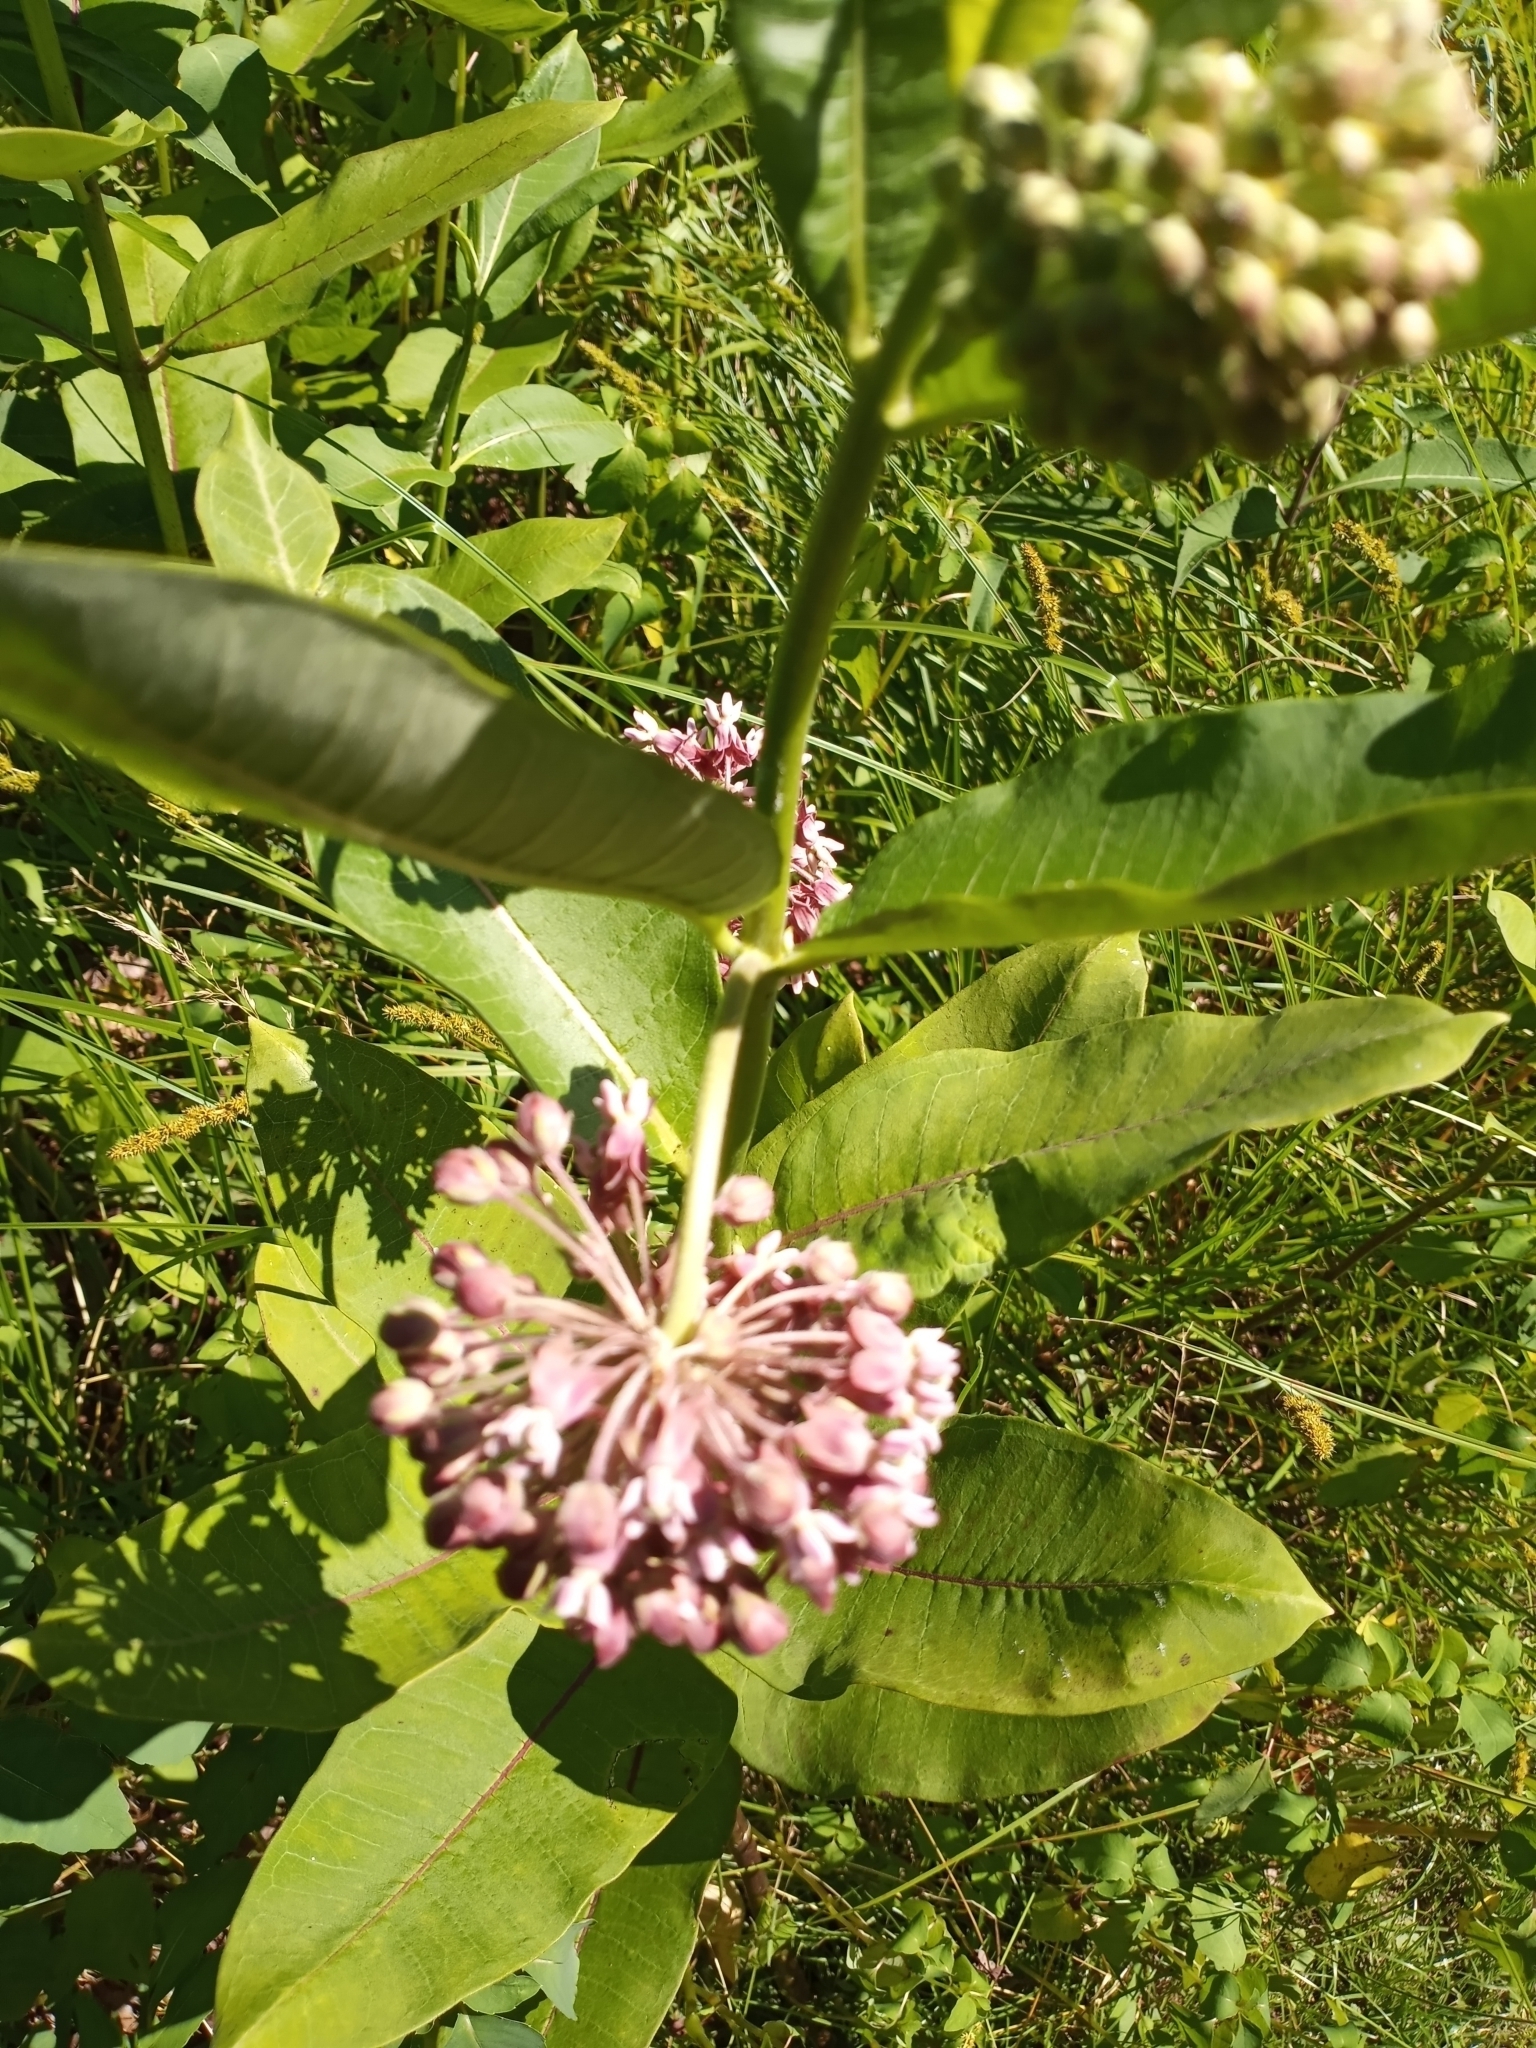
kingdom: Plantae
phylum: Tracheophyta
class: Magnoliopsida
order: Gentianales
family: Apocynaceae
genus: Asclepias
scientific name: Asclepias syriaca
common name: Common milkweed
